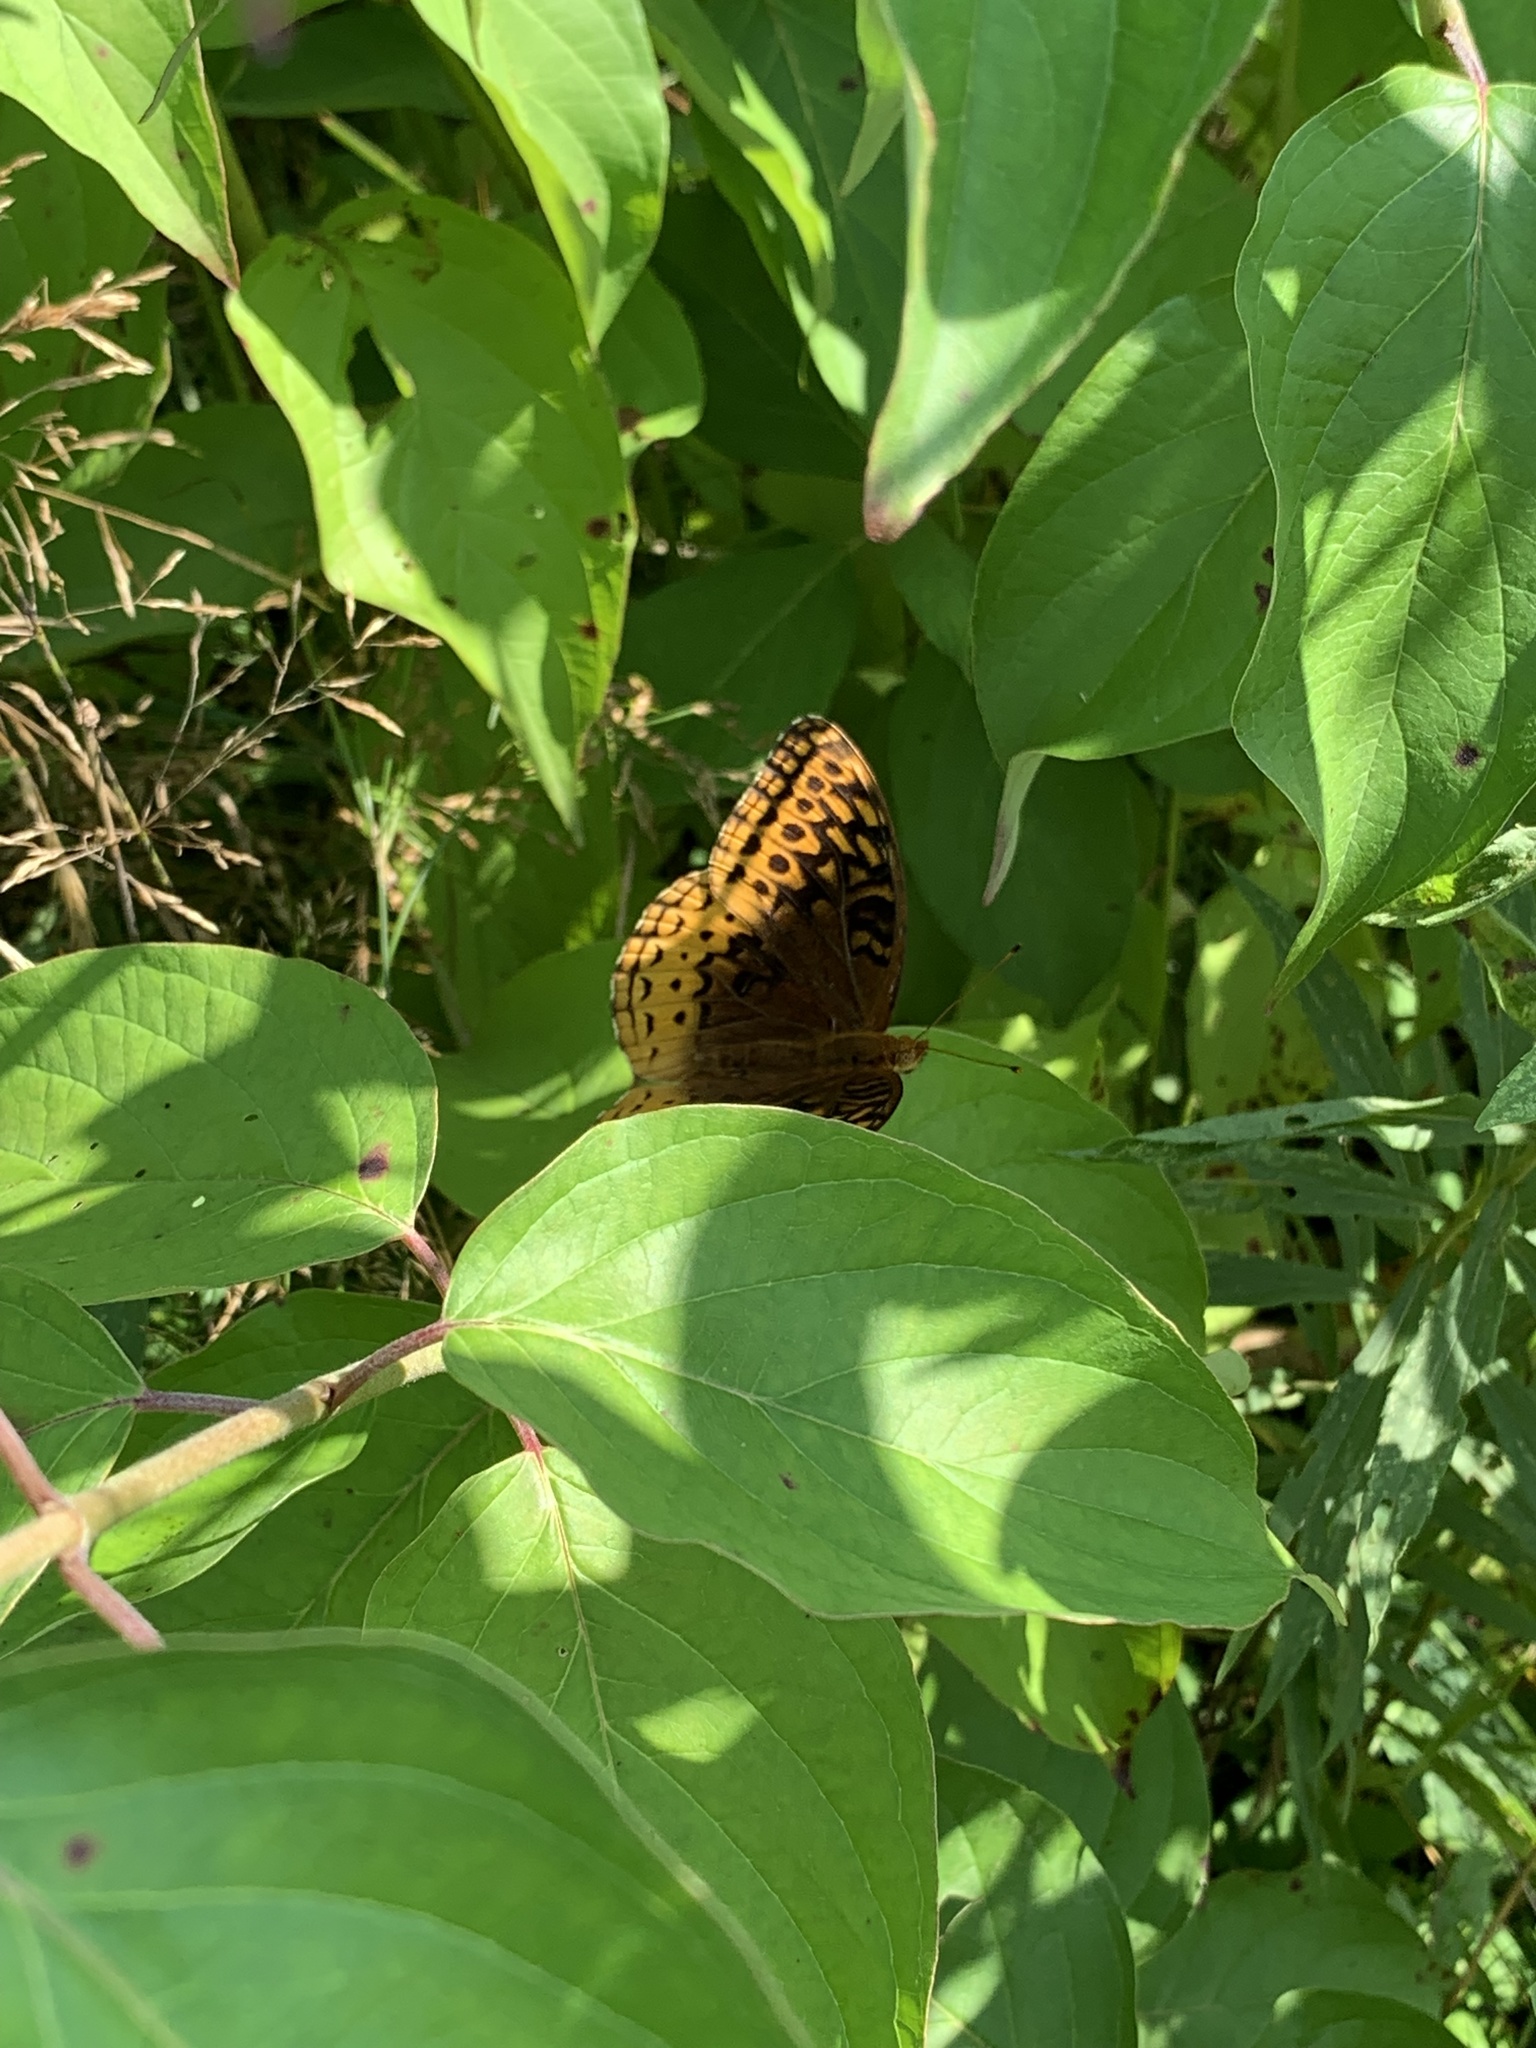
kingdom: Animalia
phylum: Arthropoda
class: Insecta
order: Lepidoptera
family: Nymphalidae
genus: Speyeria
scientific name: Speyeria cybele
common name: Great spangled fritillary
